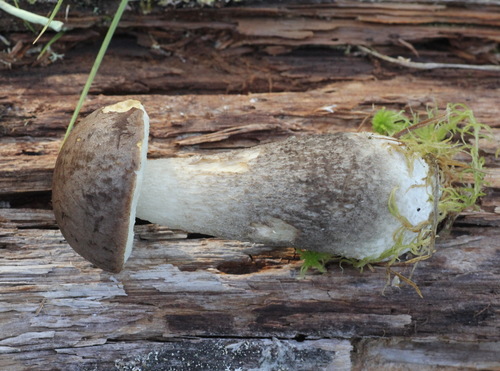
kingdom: Fungi
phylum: Basidiomycota
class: Agaricomycetes
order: Boletales
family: Boletaceae
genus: Leccinum
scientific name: Leccinum scabrum
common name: Blushing bolete
